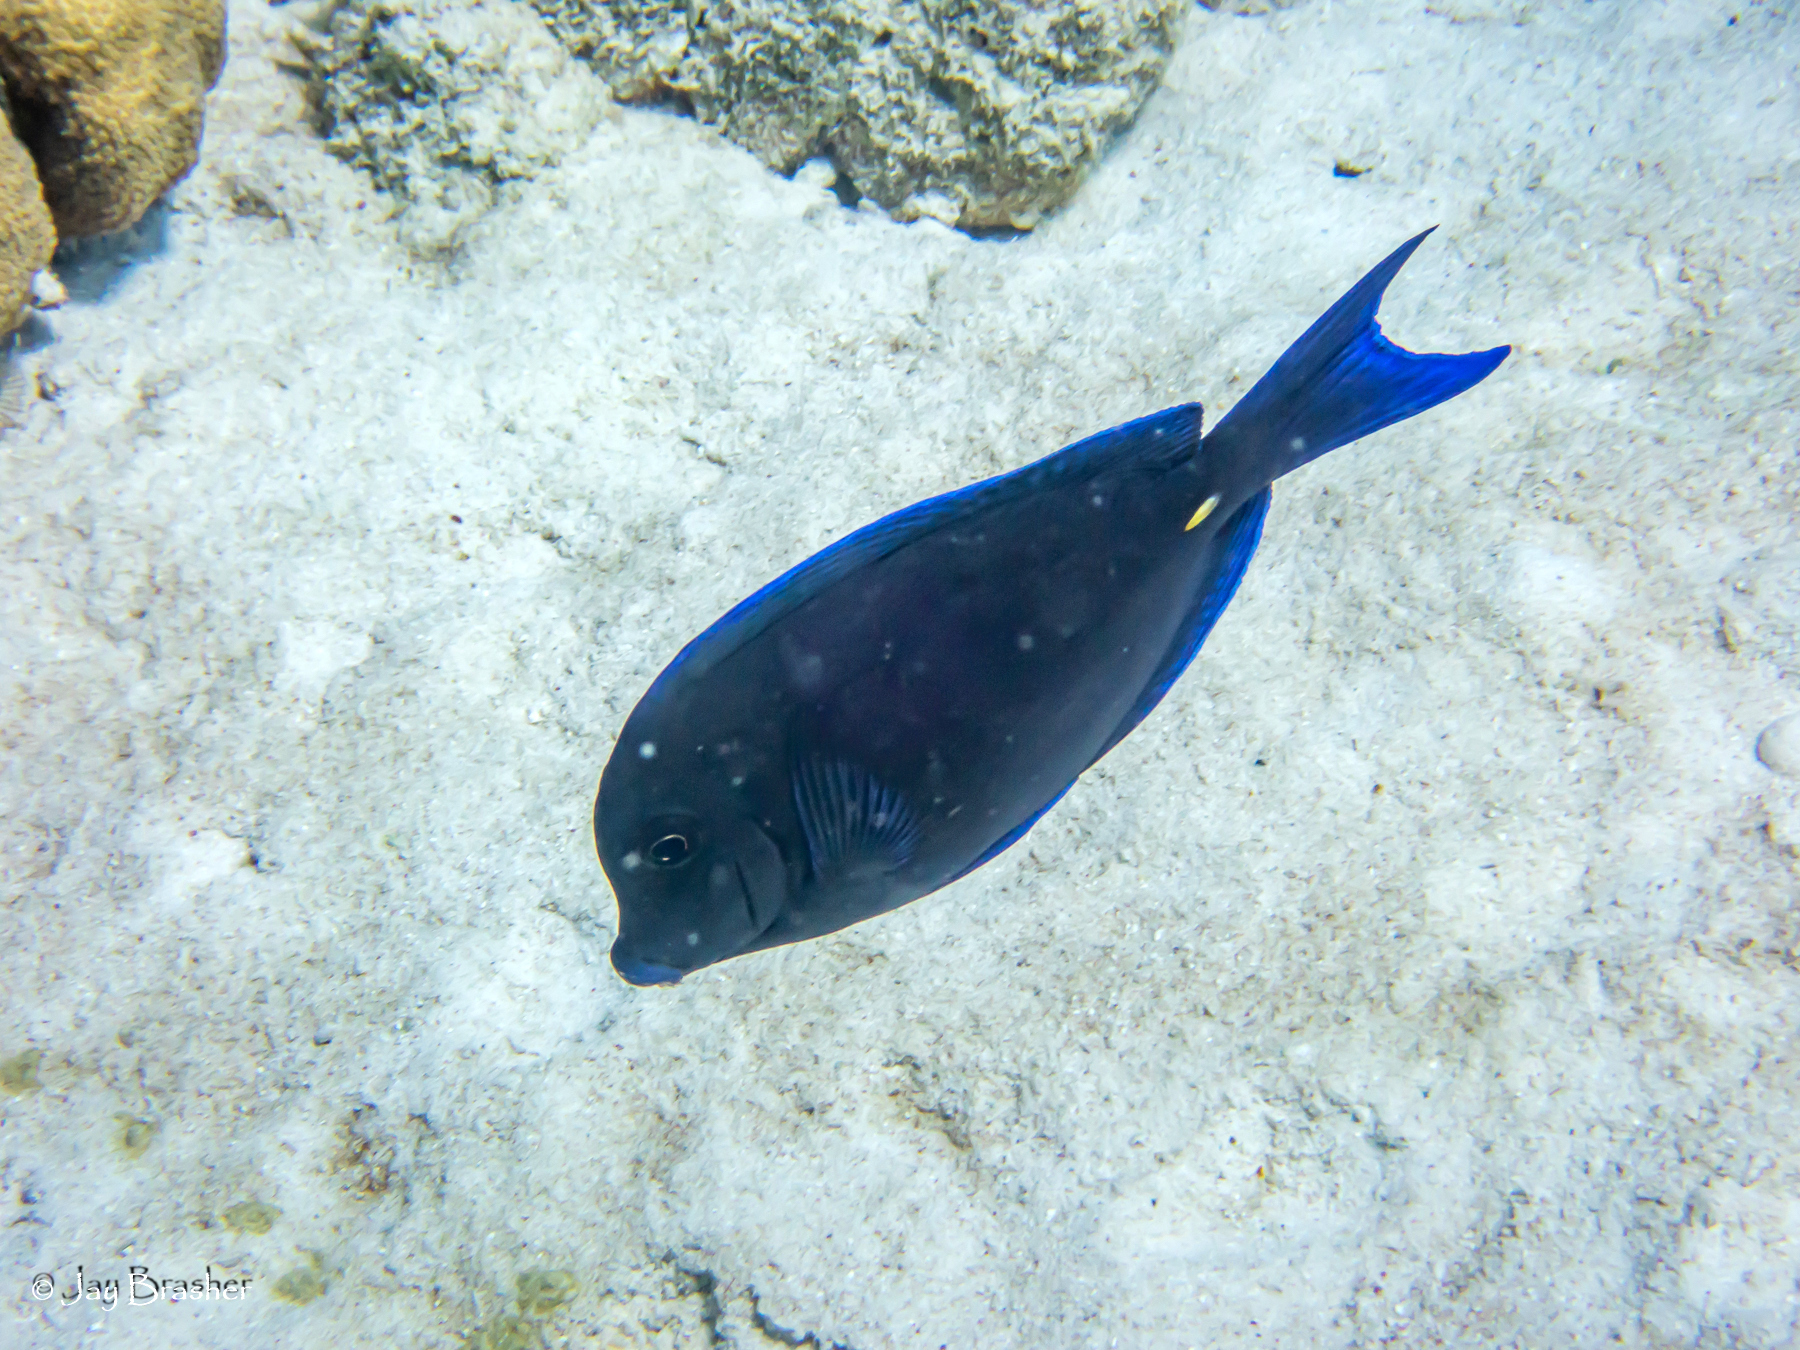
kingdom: Animalia
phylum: Chordata
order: Perciformes
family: Acanthuridae
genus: Acanthurus
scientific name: Acanthurus coeruleus
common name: Blue tang
